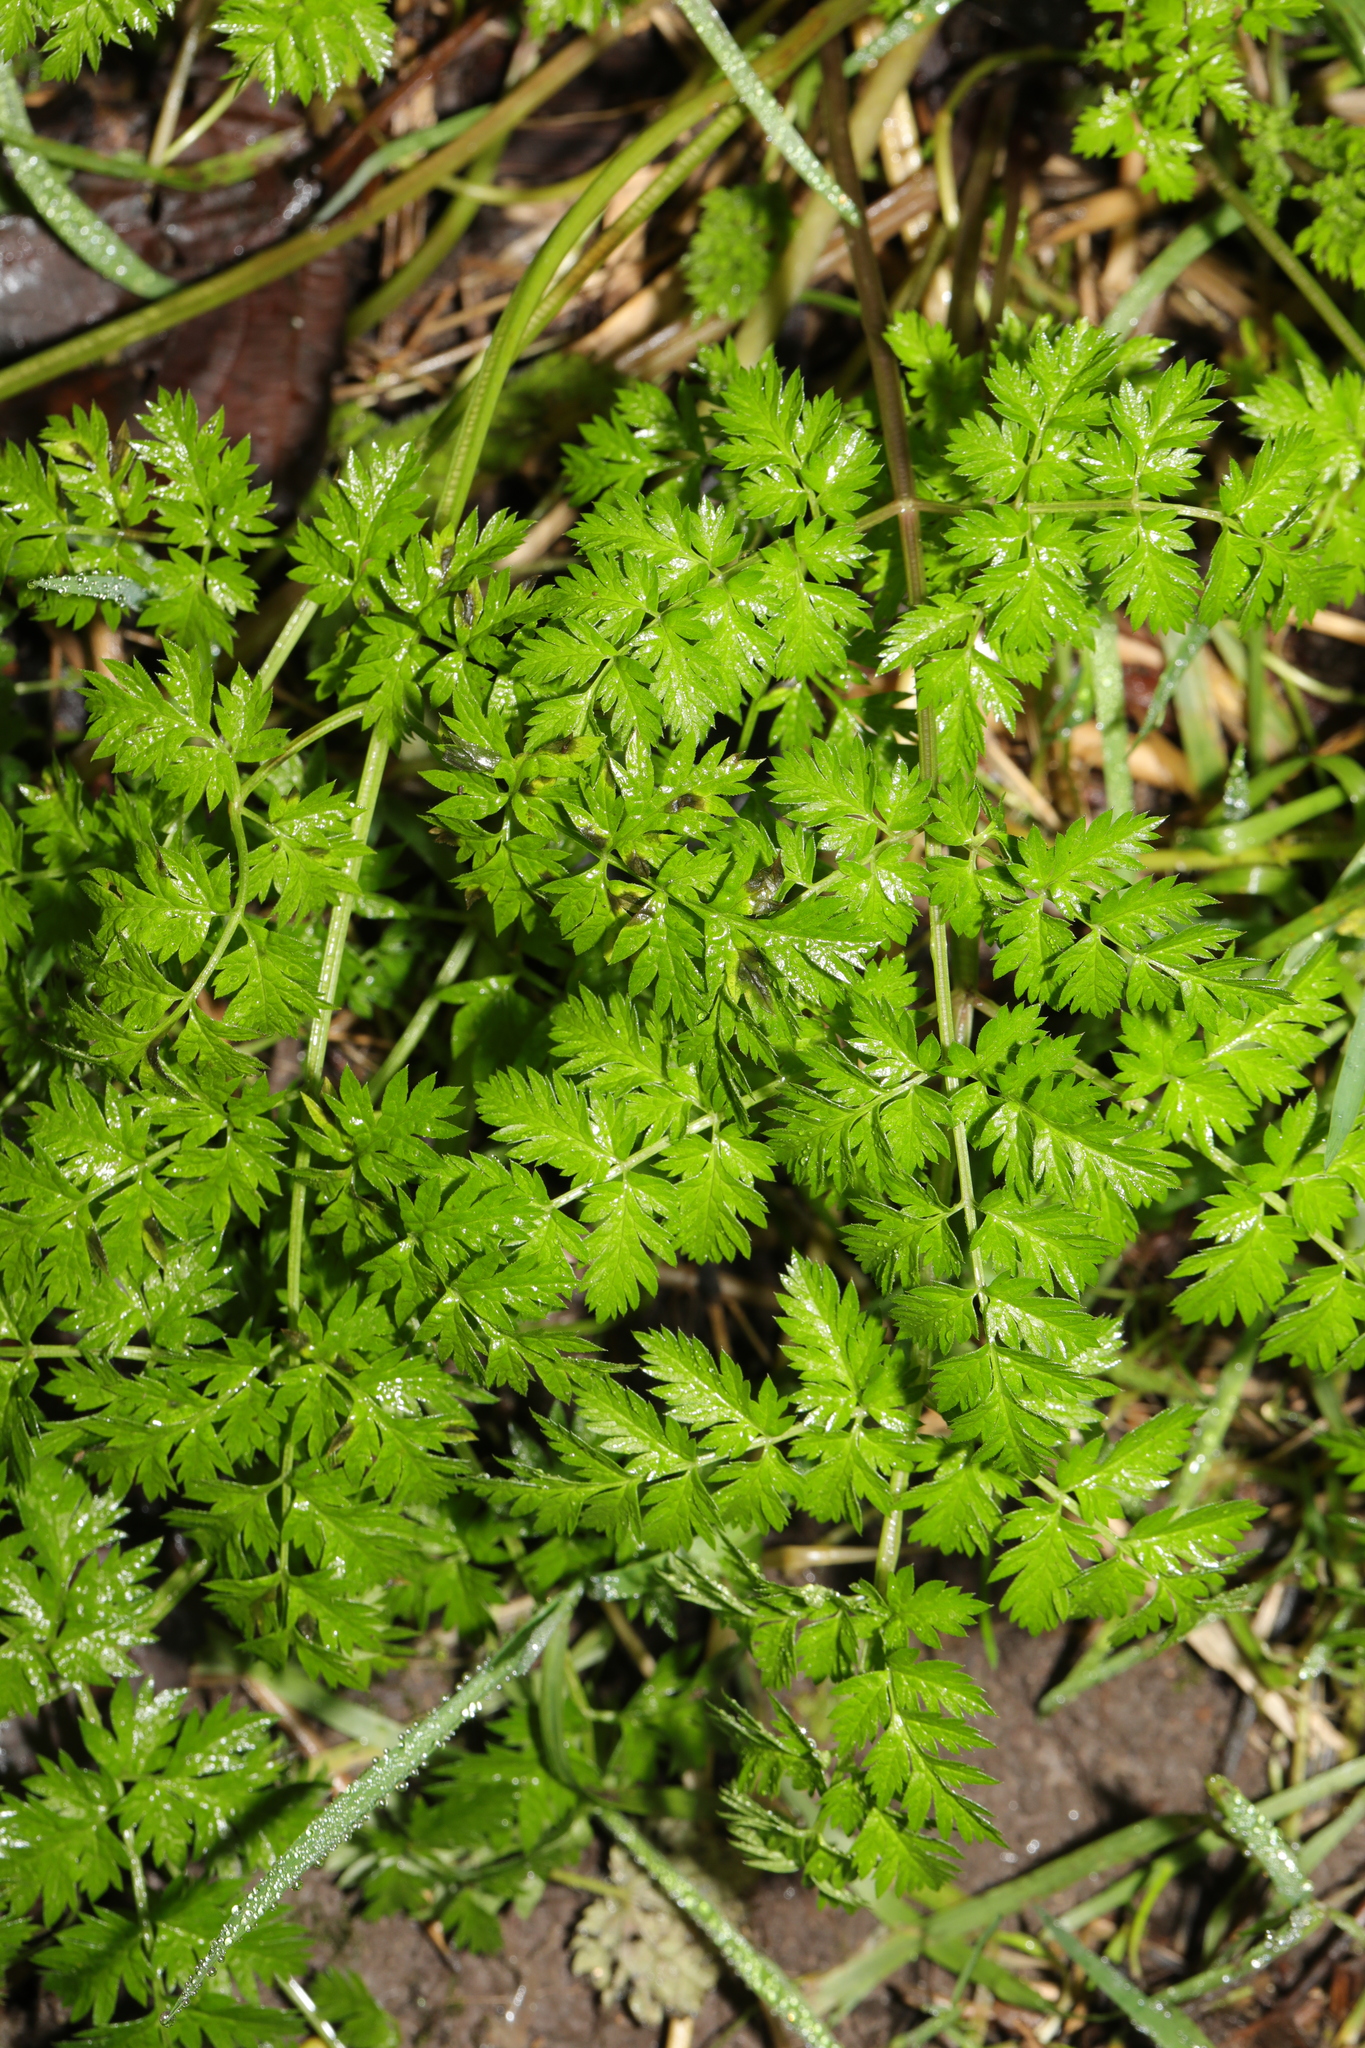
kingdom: Plantae
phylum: Tracheophyta
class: Magnoliopsida
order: Apiales
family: Apiaceae
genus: Anthriscus
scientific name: Anthriscus sylvestris
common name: Cow parsley
